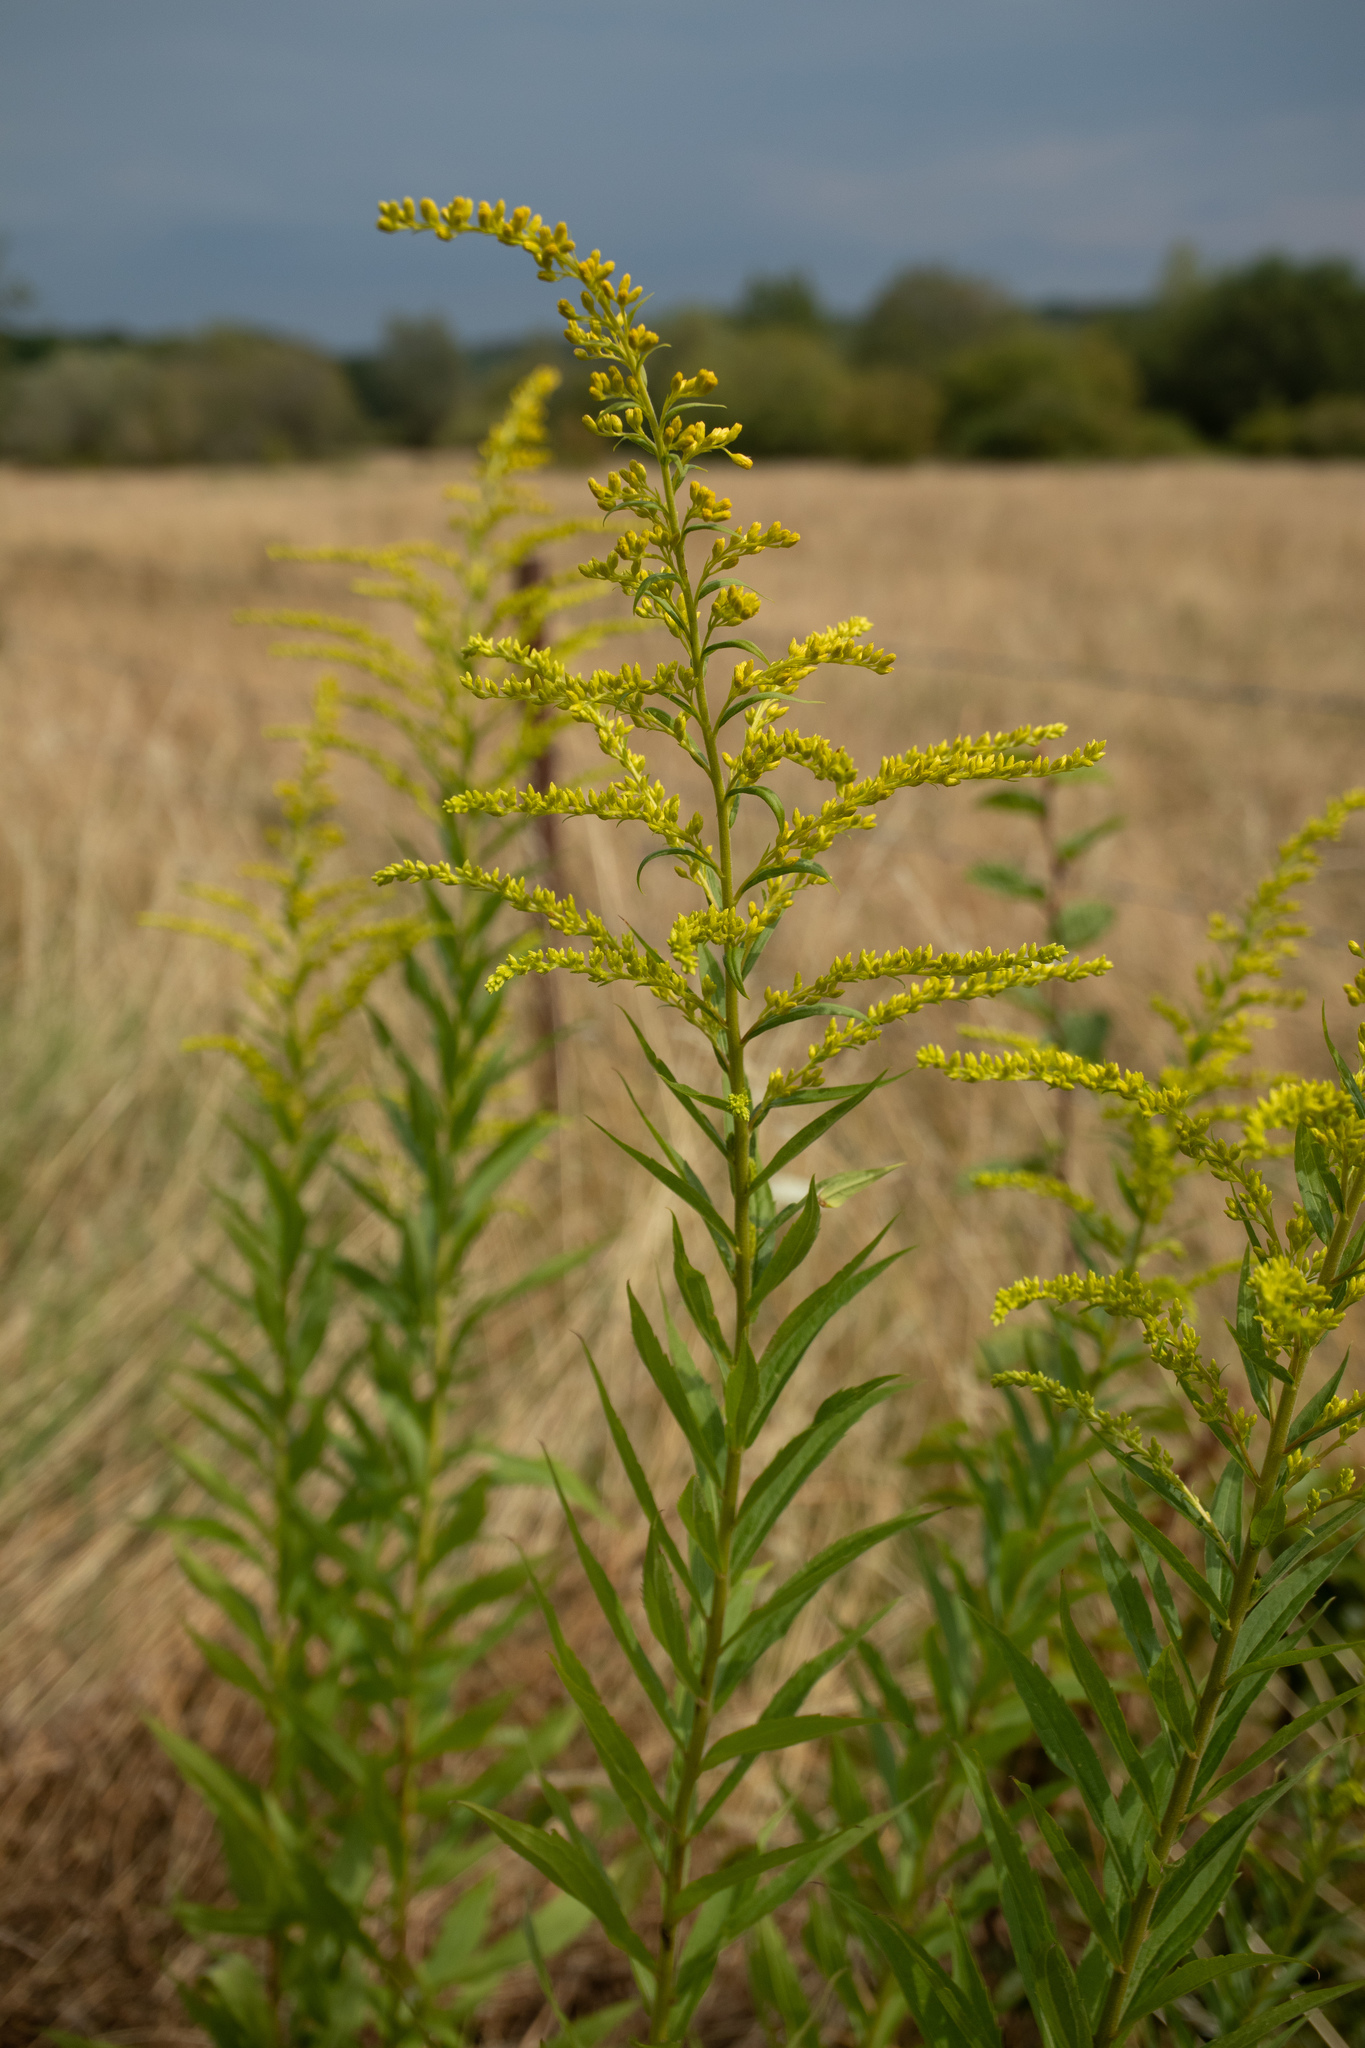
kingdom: Plantae
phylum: Tracheophyta
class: Magnoliopsida
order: Asterales
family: Asteraceae
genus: Solidago
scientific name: Solidago canadensis
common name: Canada goldenrod
